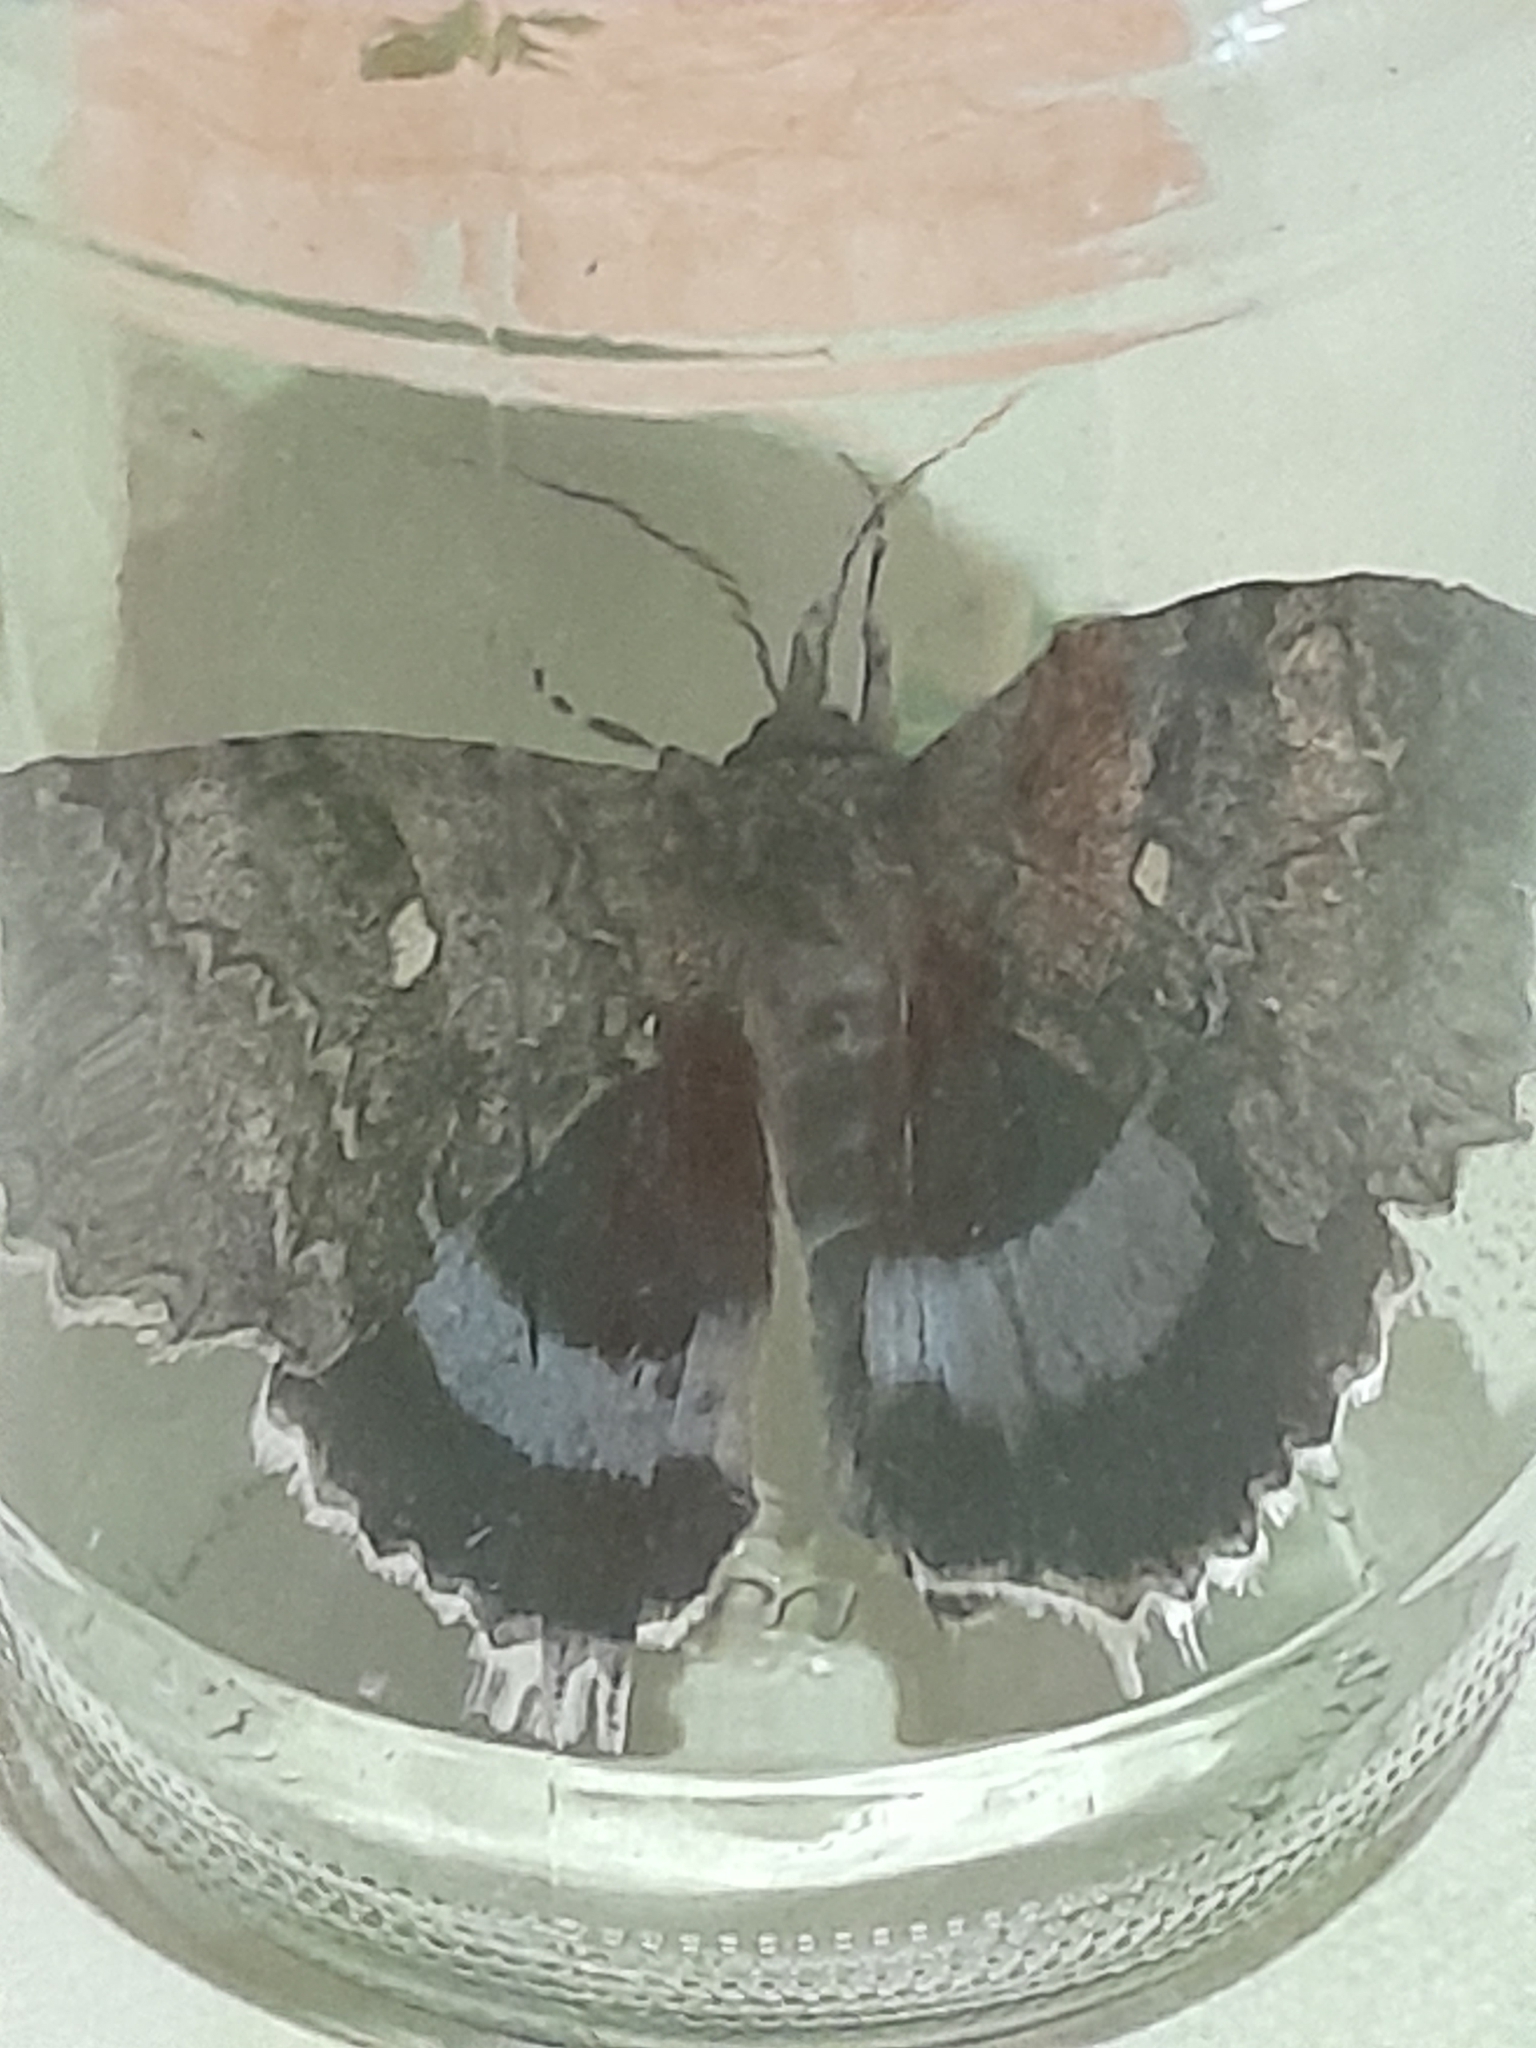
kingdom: Animalia
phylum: Arthropoda
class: Insecta
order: Lepidoptera
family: Erebidae
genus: Catocala
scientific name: Catocala fraxini
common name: Clifden nonpareil
